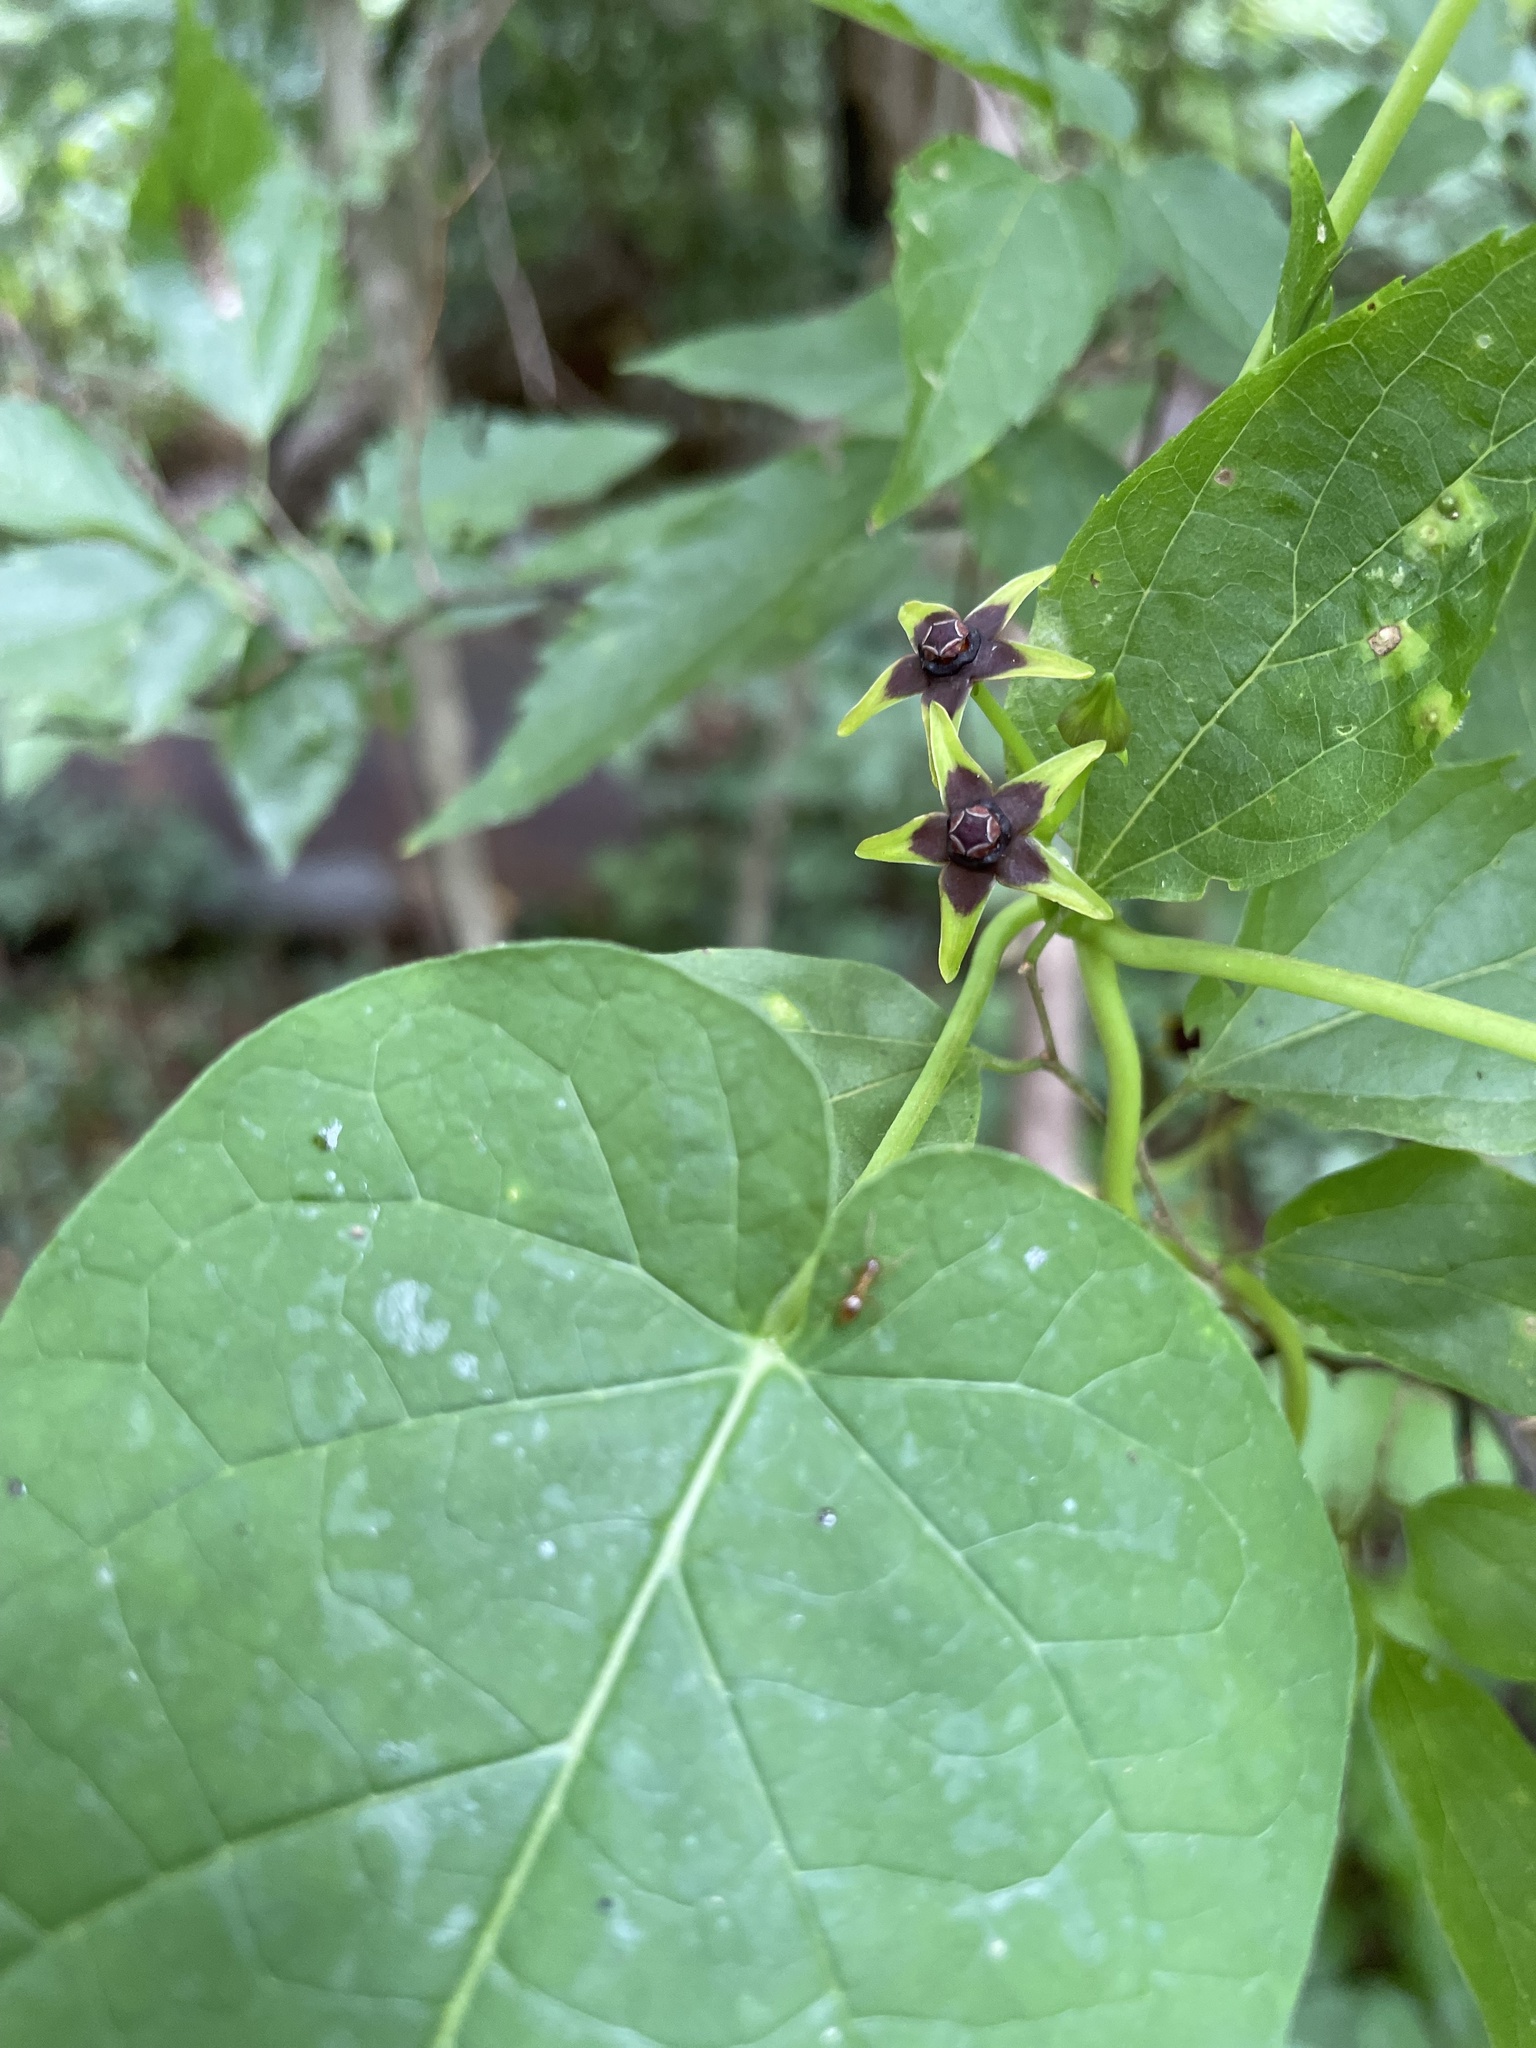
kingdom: Plantae
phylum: Tracheophyta
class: Magnoliopsida
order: Gentianales
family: Apocynaceae
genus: Gonolobus
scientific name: Gonolobus suberosus
